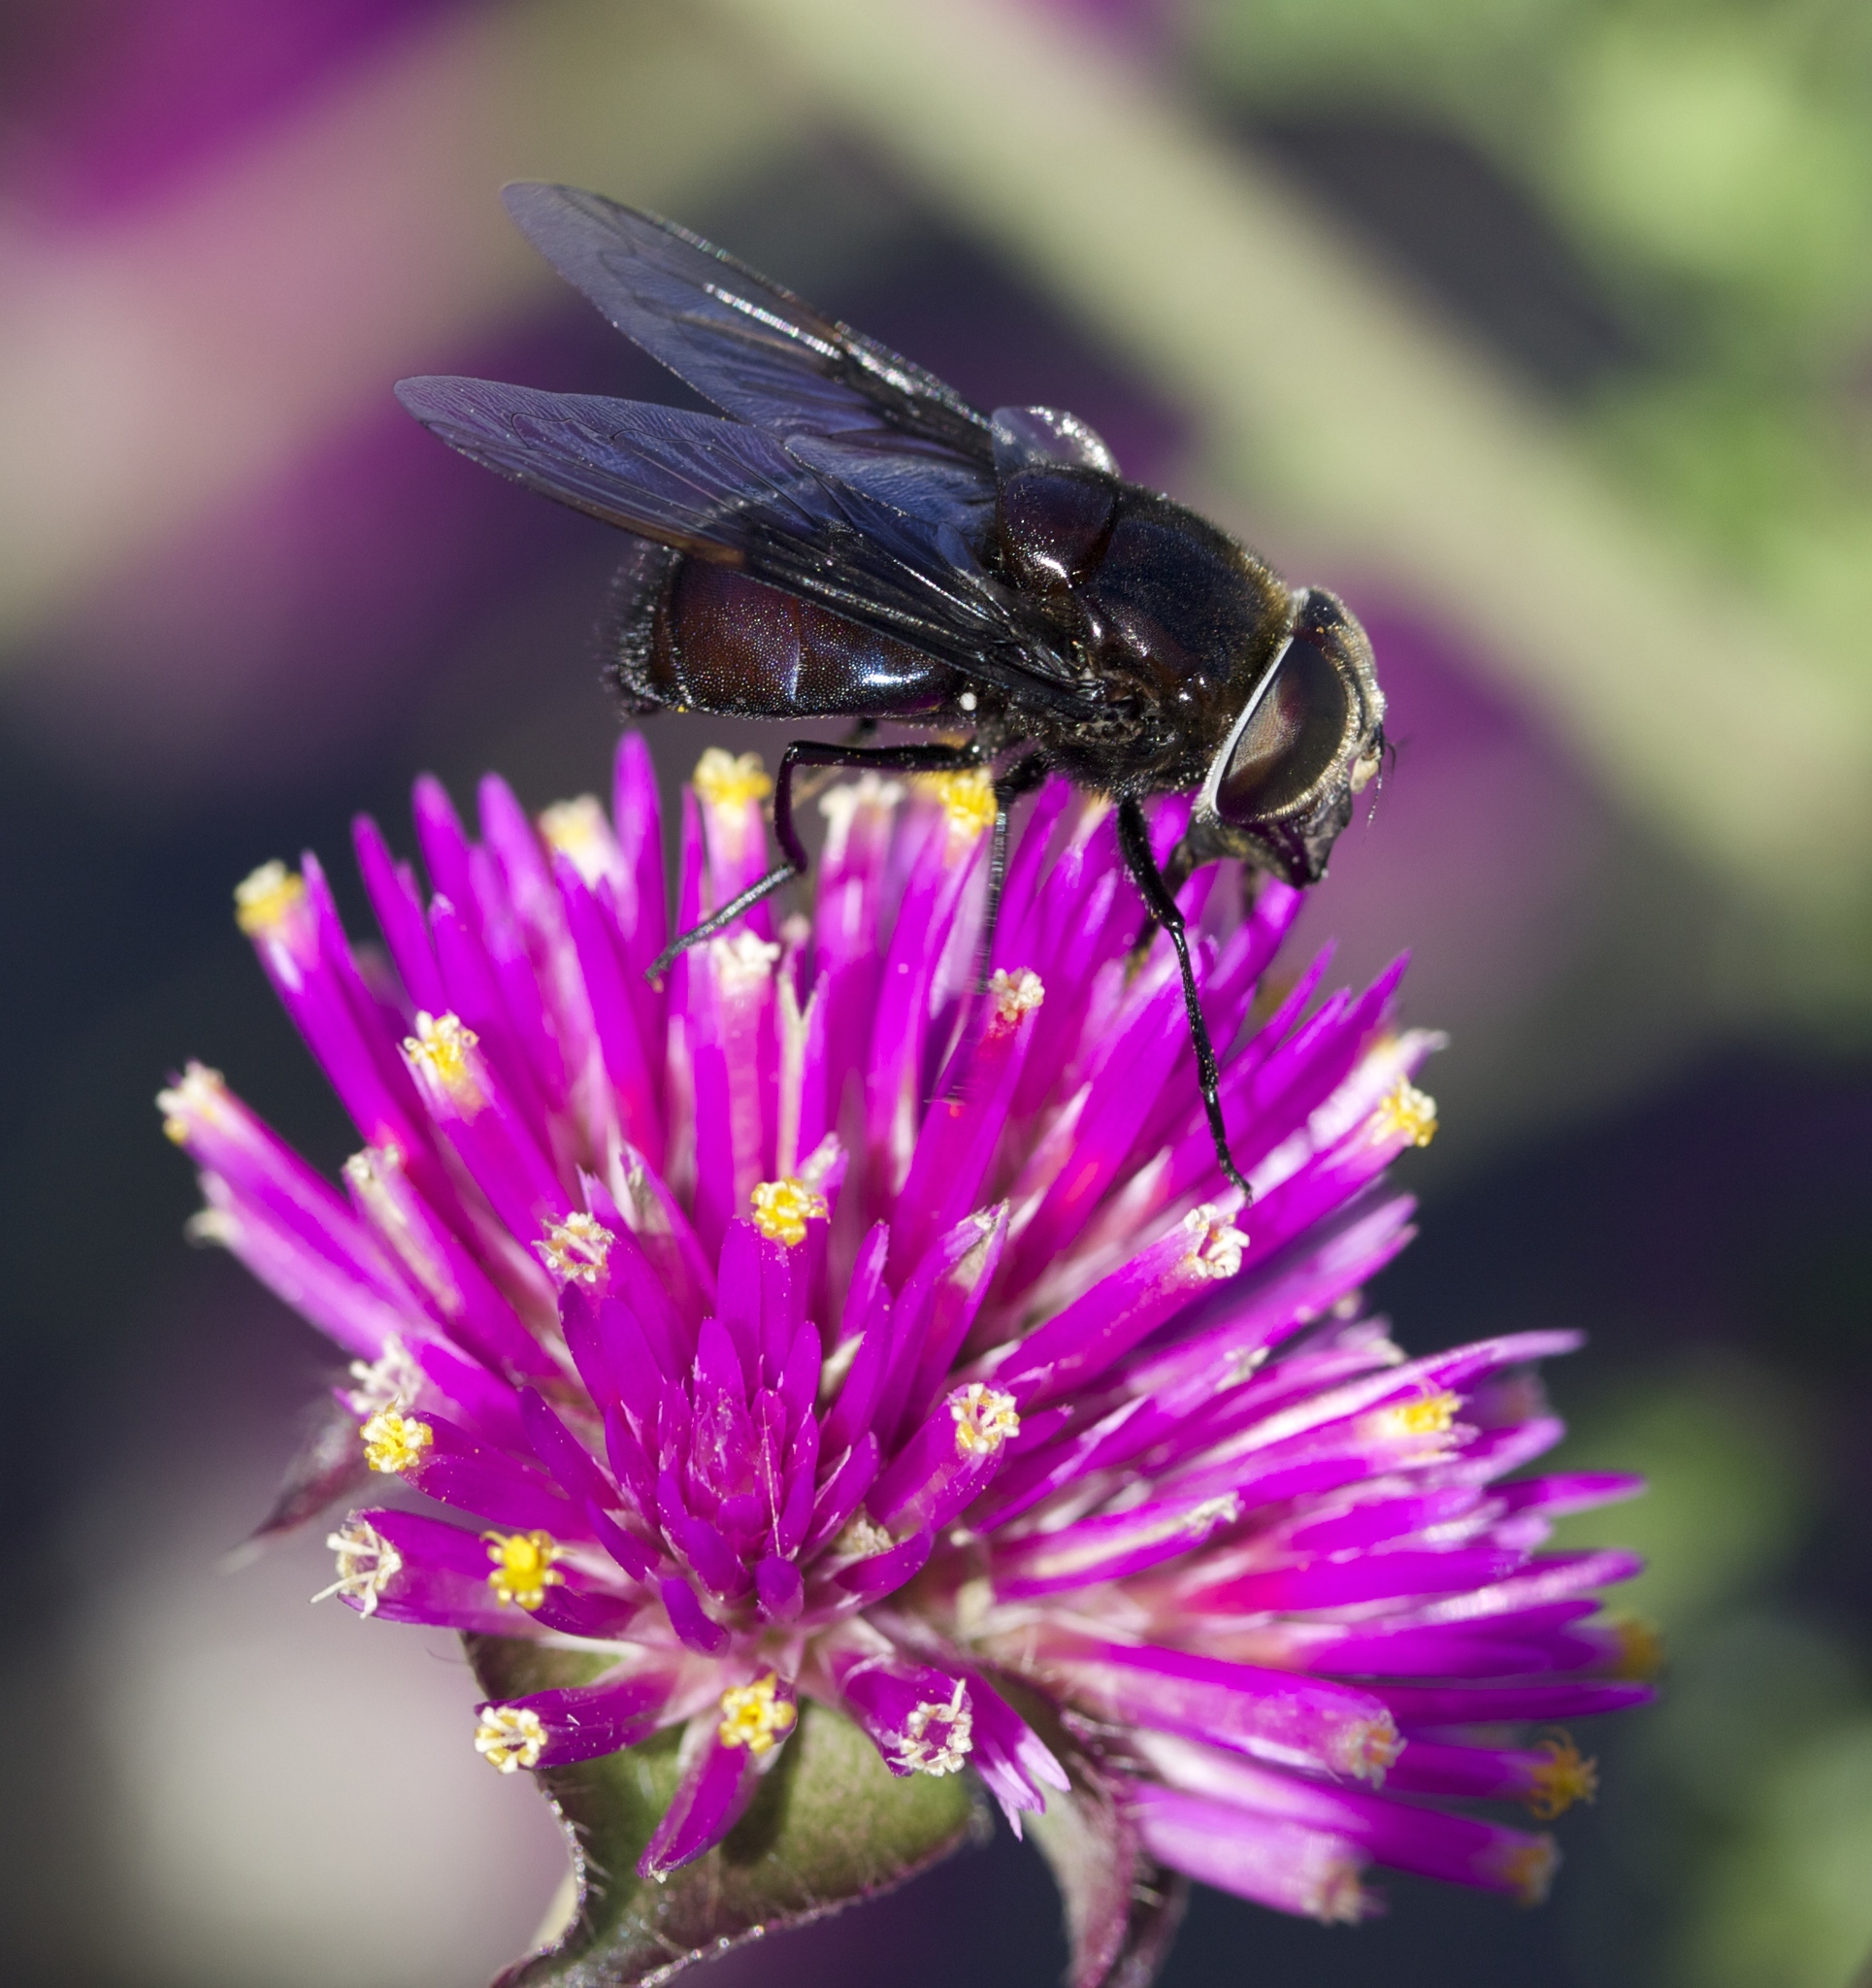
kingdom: Animalia
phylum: Arthropoda
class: Insecta
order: Diptera
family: Syrphidae
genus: Copestylum
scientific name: Copestylum mexicanum
